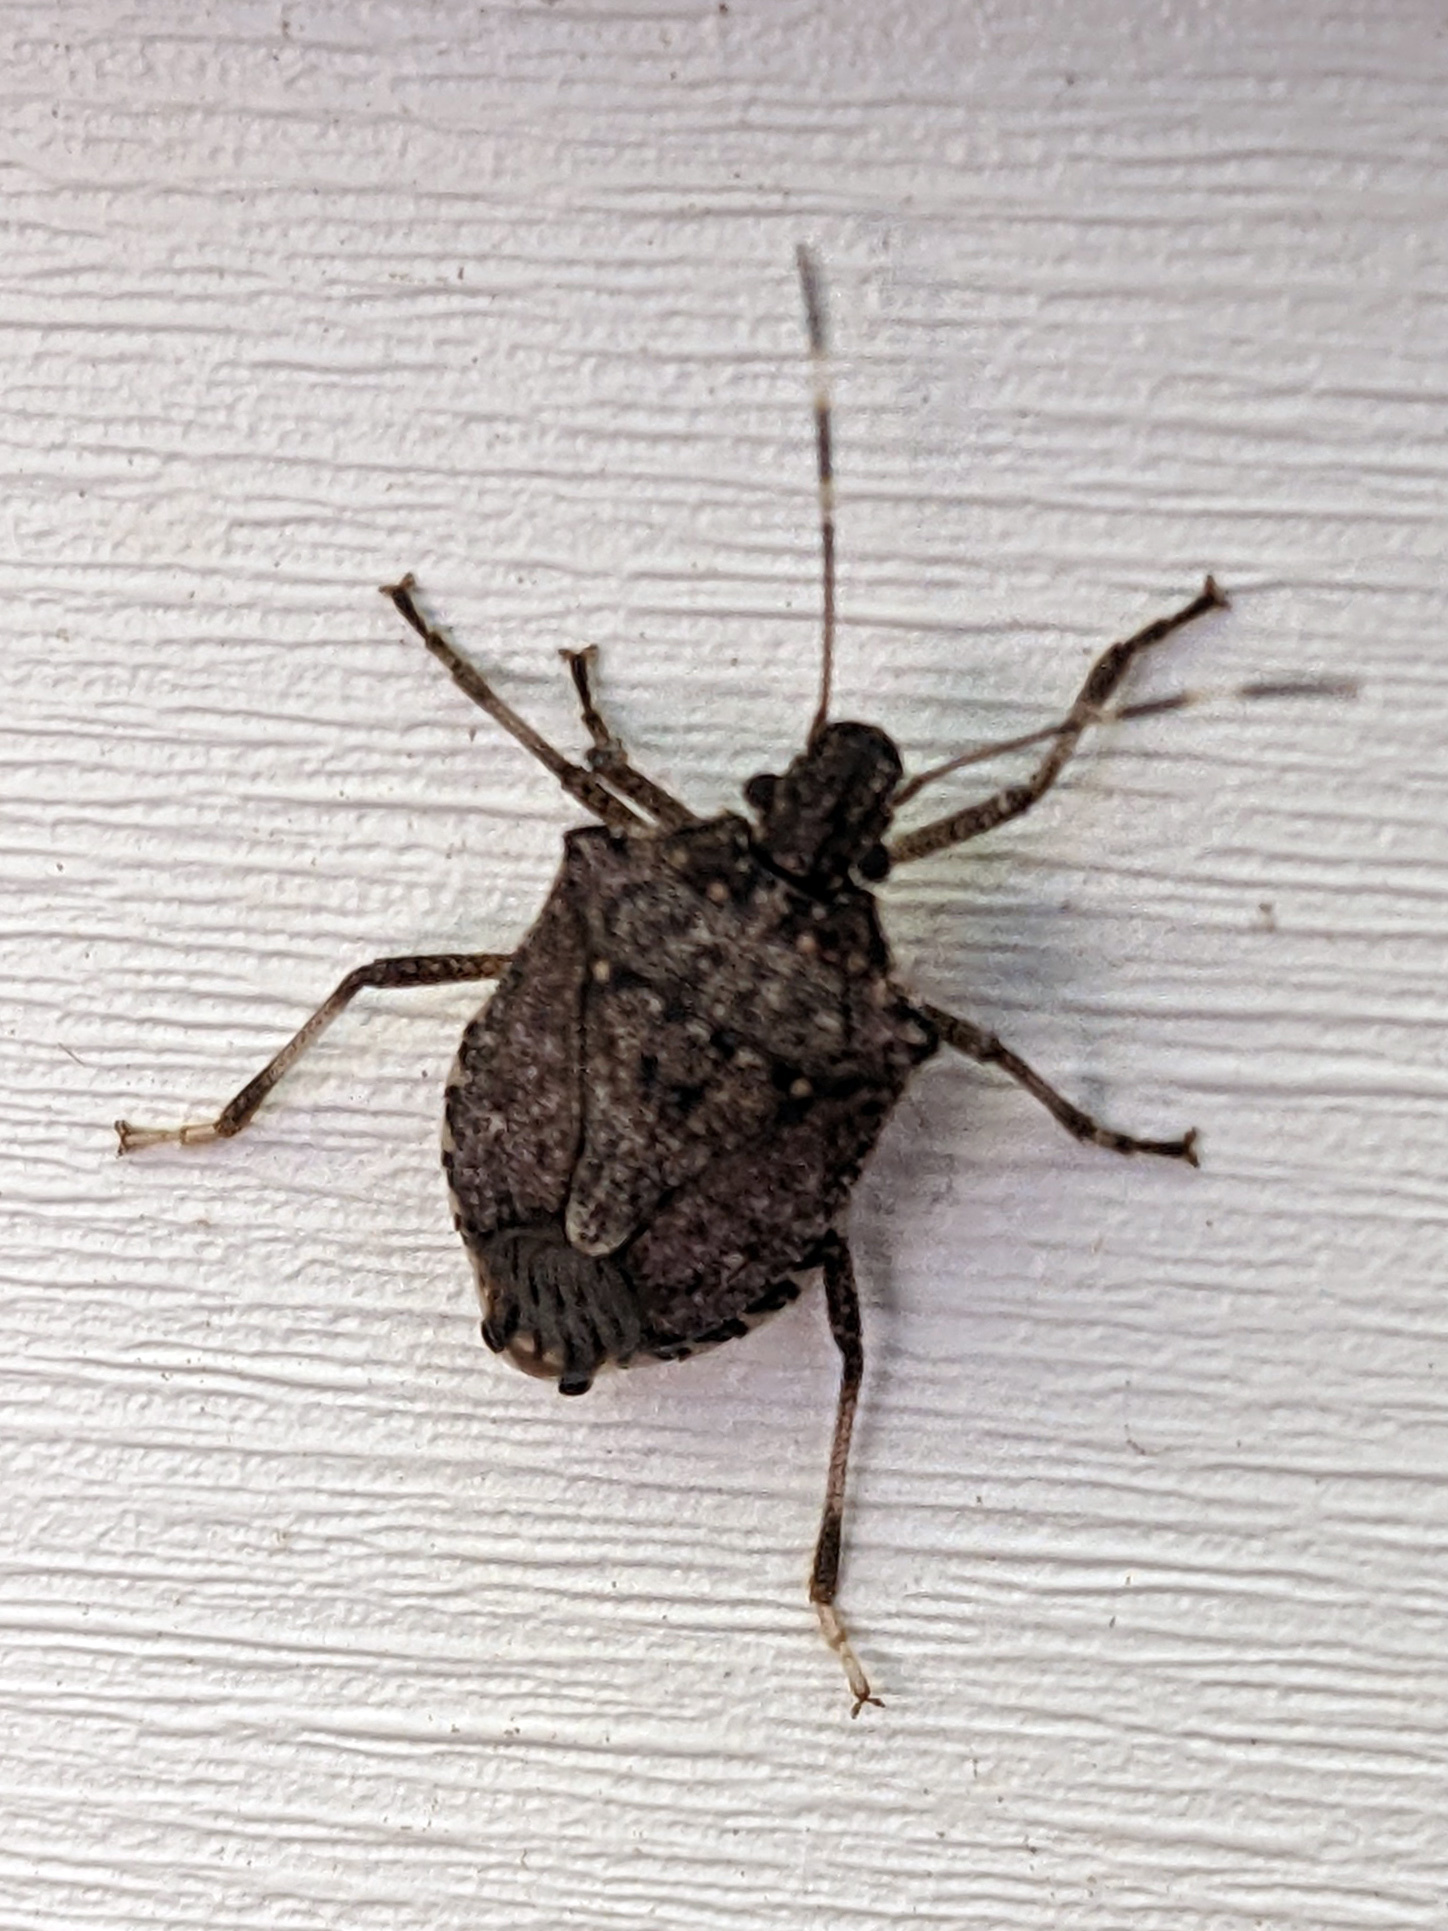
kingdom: Animalia
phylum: Arthropoda
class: Insecta
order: Hemiptera
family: Pentatomidae
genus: Halyomorpha
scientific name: Halyomorpha halys
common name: Brown marmorated stink bug
